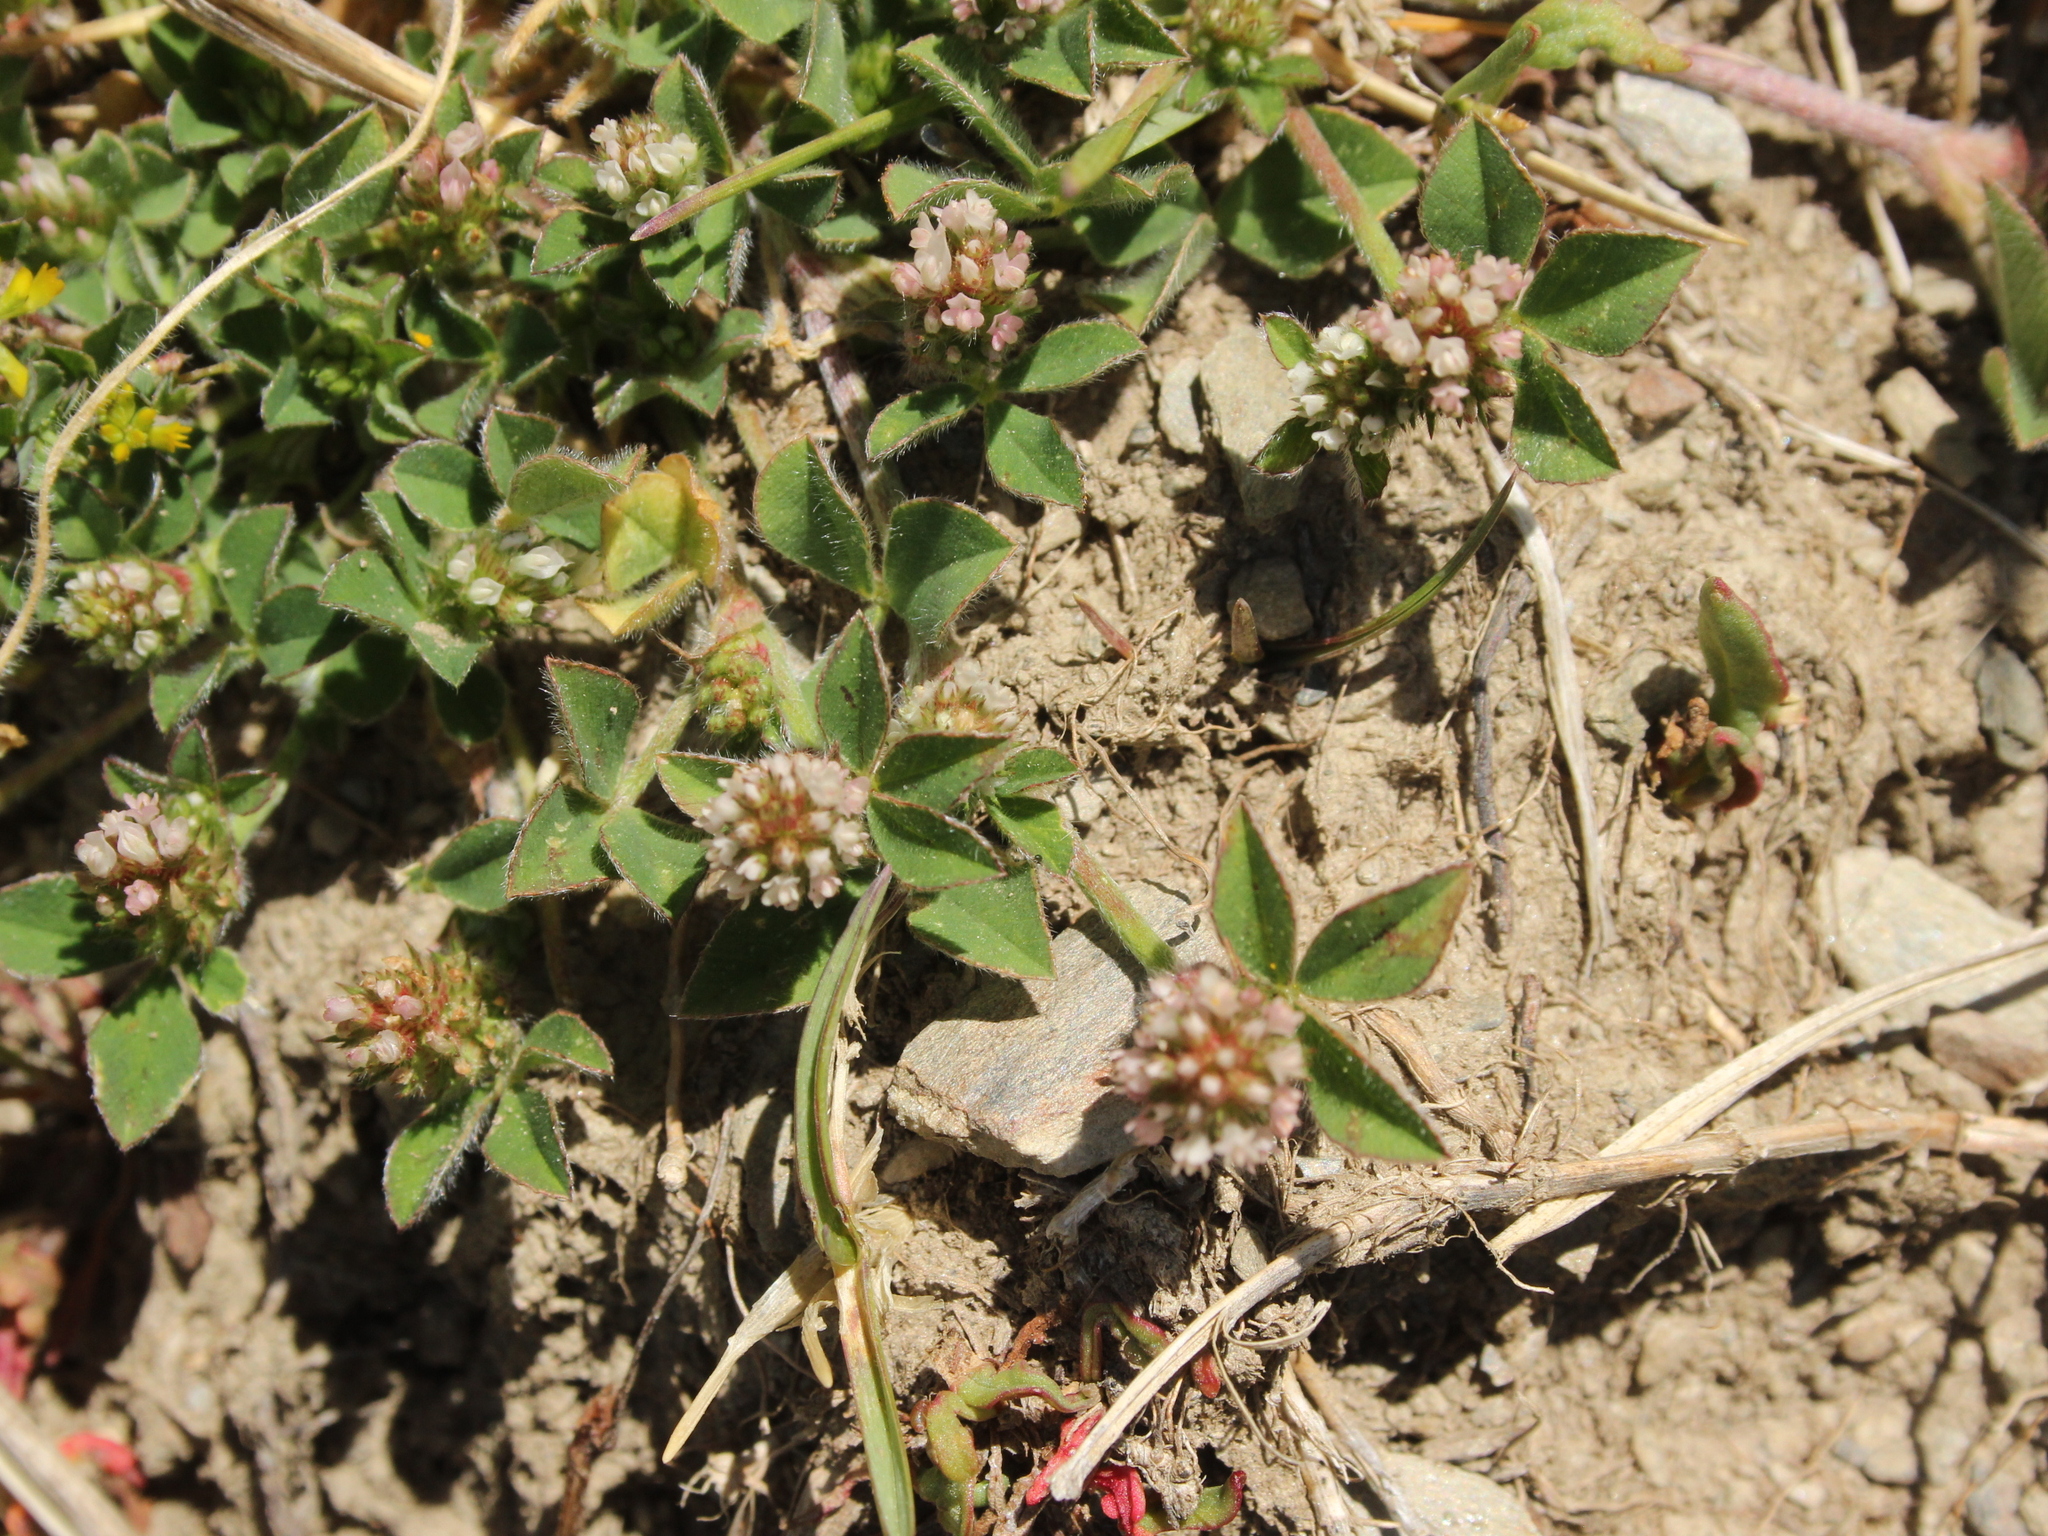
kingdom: Plantae
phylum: Tracheophyta
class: Magnoliopsida
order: Fabales
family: Fabaceae
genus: Trifolium
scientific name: Trifolium striatum
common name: Knotted clover
